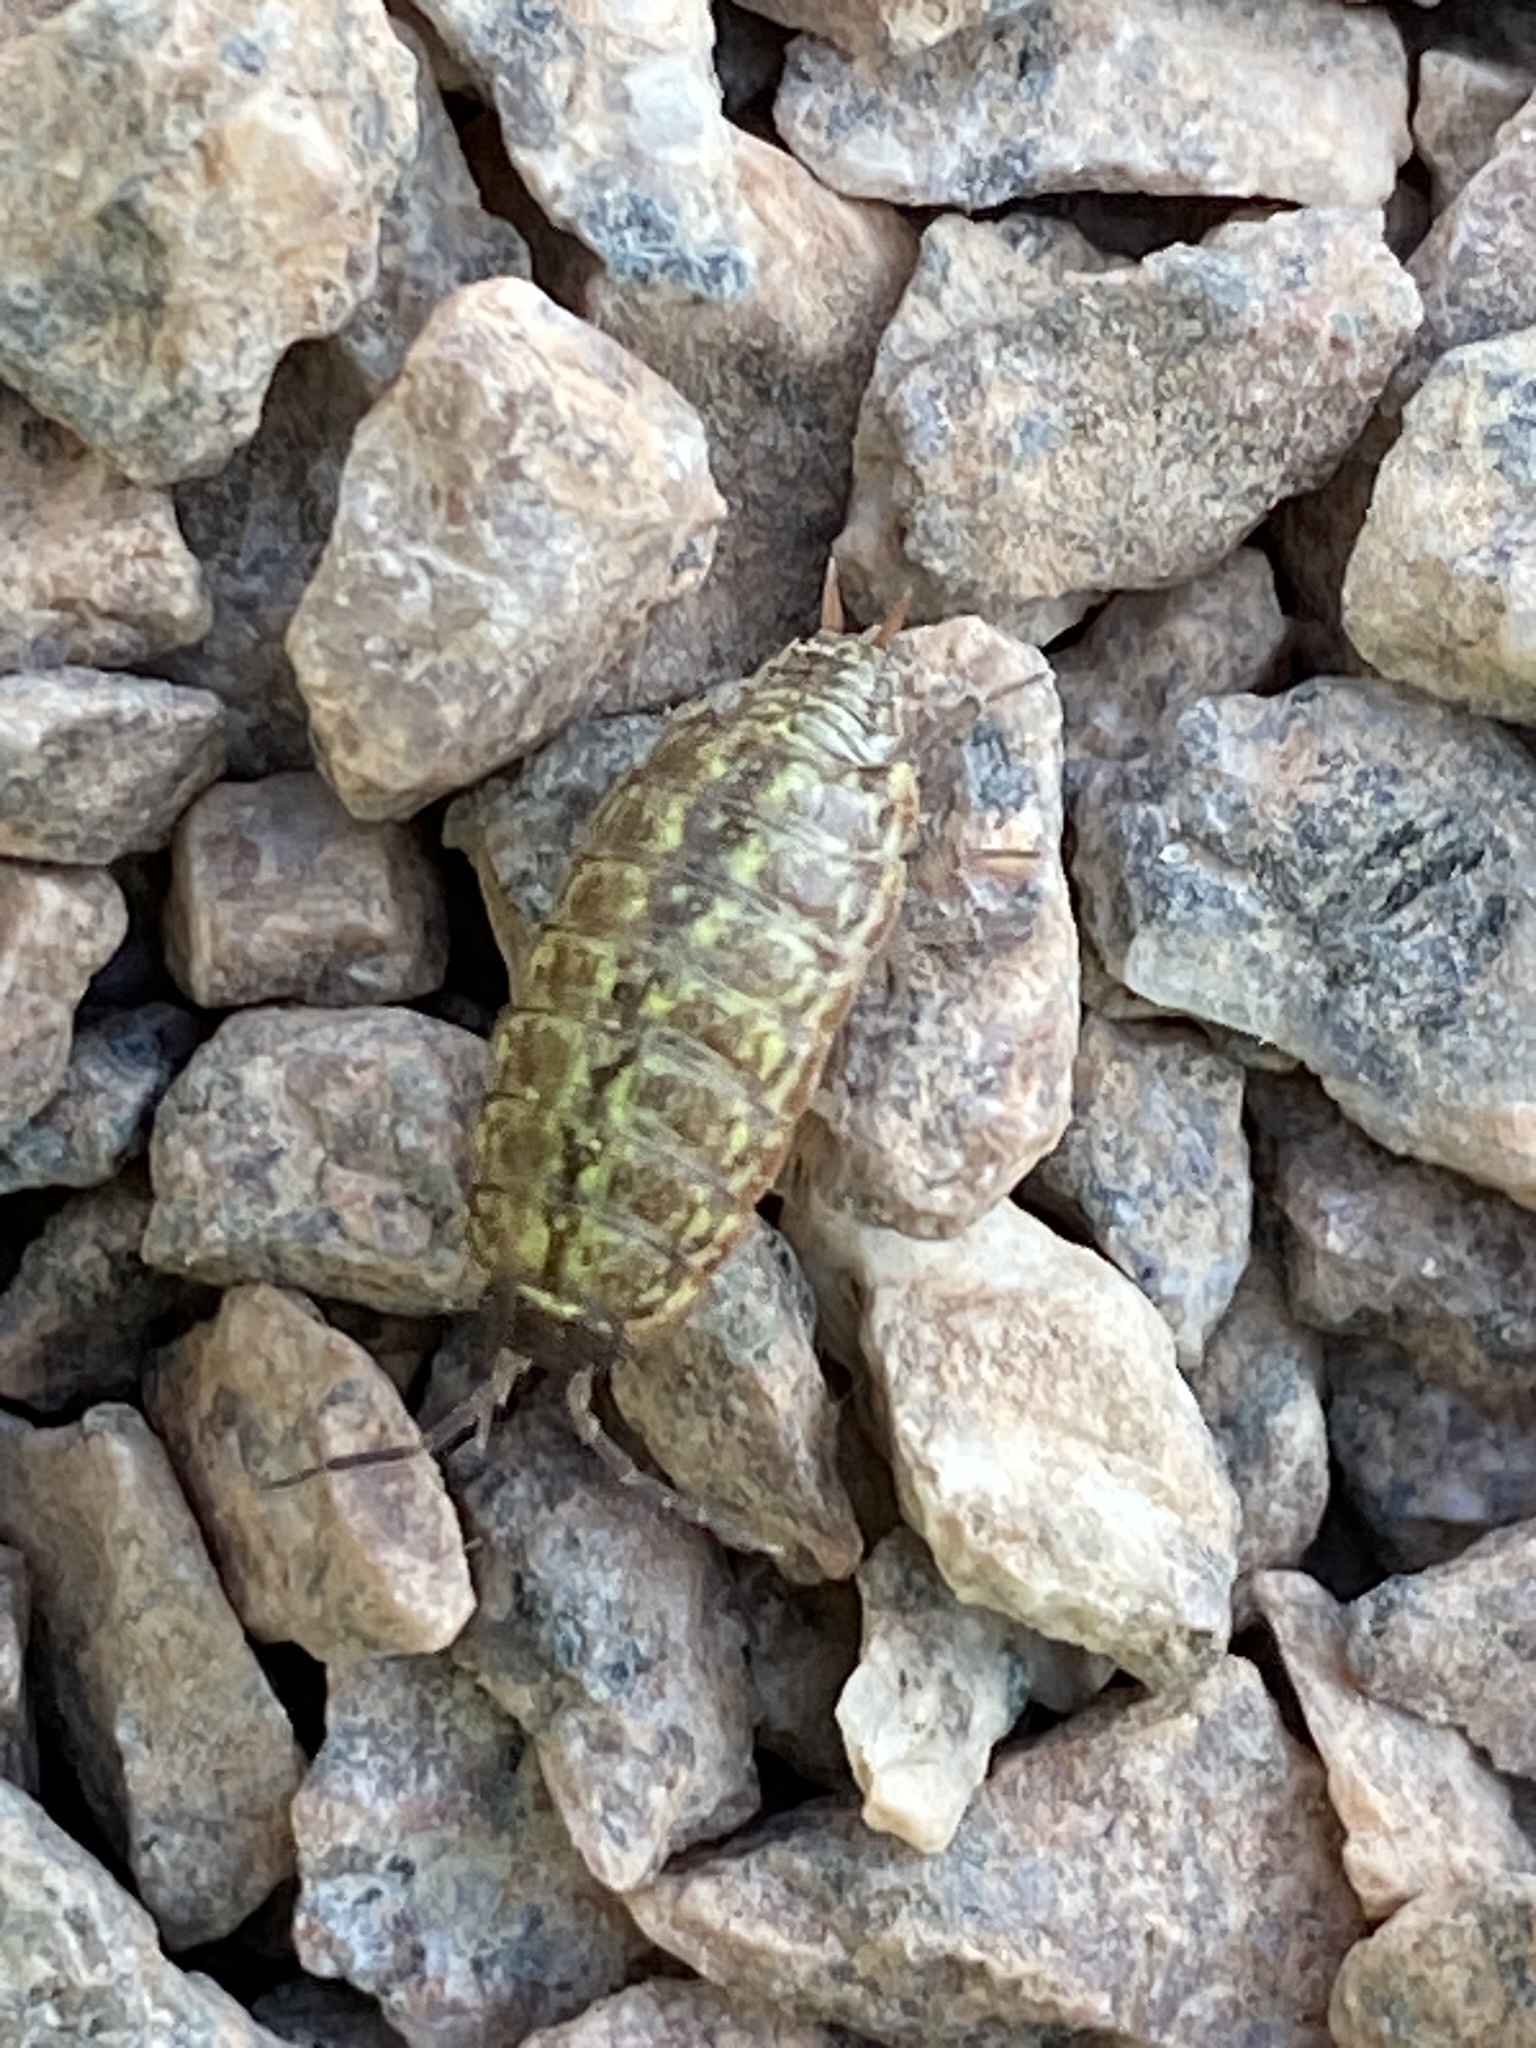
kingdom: Animalia
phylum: Arthropoda
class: Malacostraca
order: Isopoda
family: Philosciidae
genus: Philoscia
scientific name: Philoscia muscorum
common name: Common striped woodlouse
